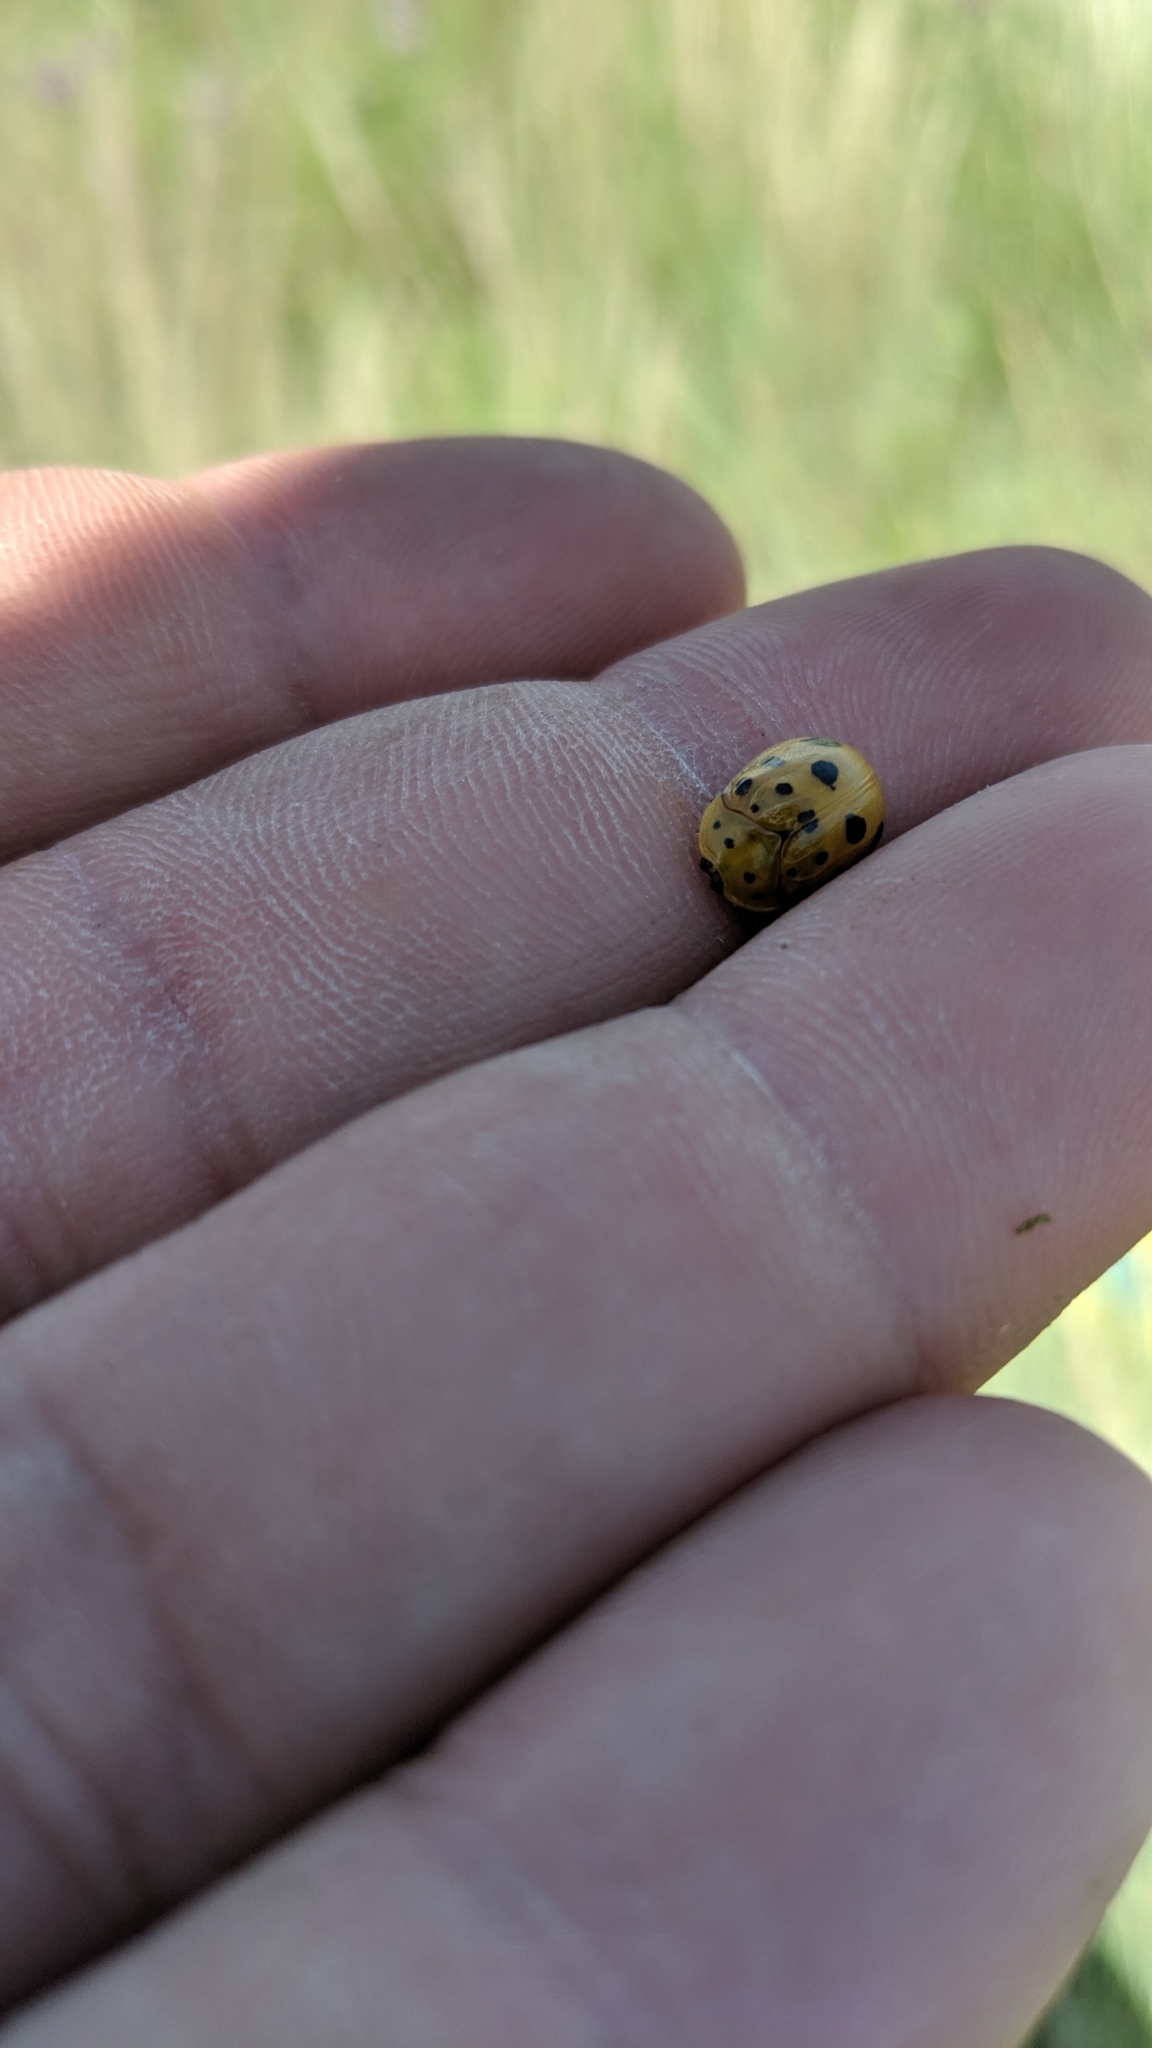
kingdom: Animalia
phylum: Arthropoda
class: Insecta
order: Coleoptera
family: Chrysomelidae
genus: Chelymorpha
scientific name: Chelymorpha cassidea
